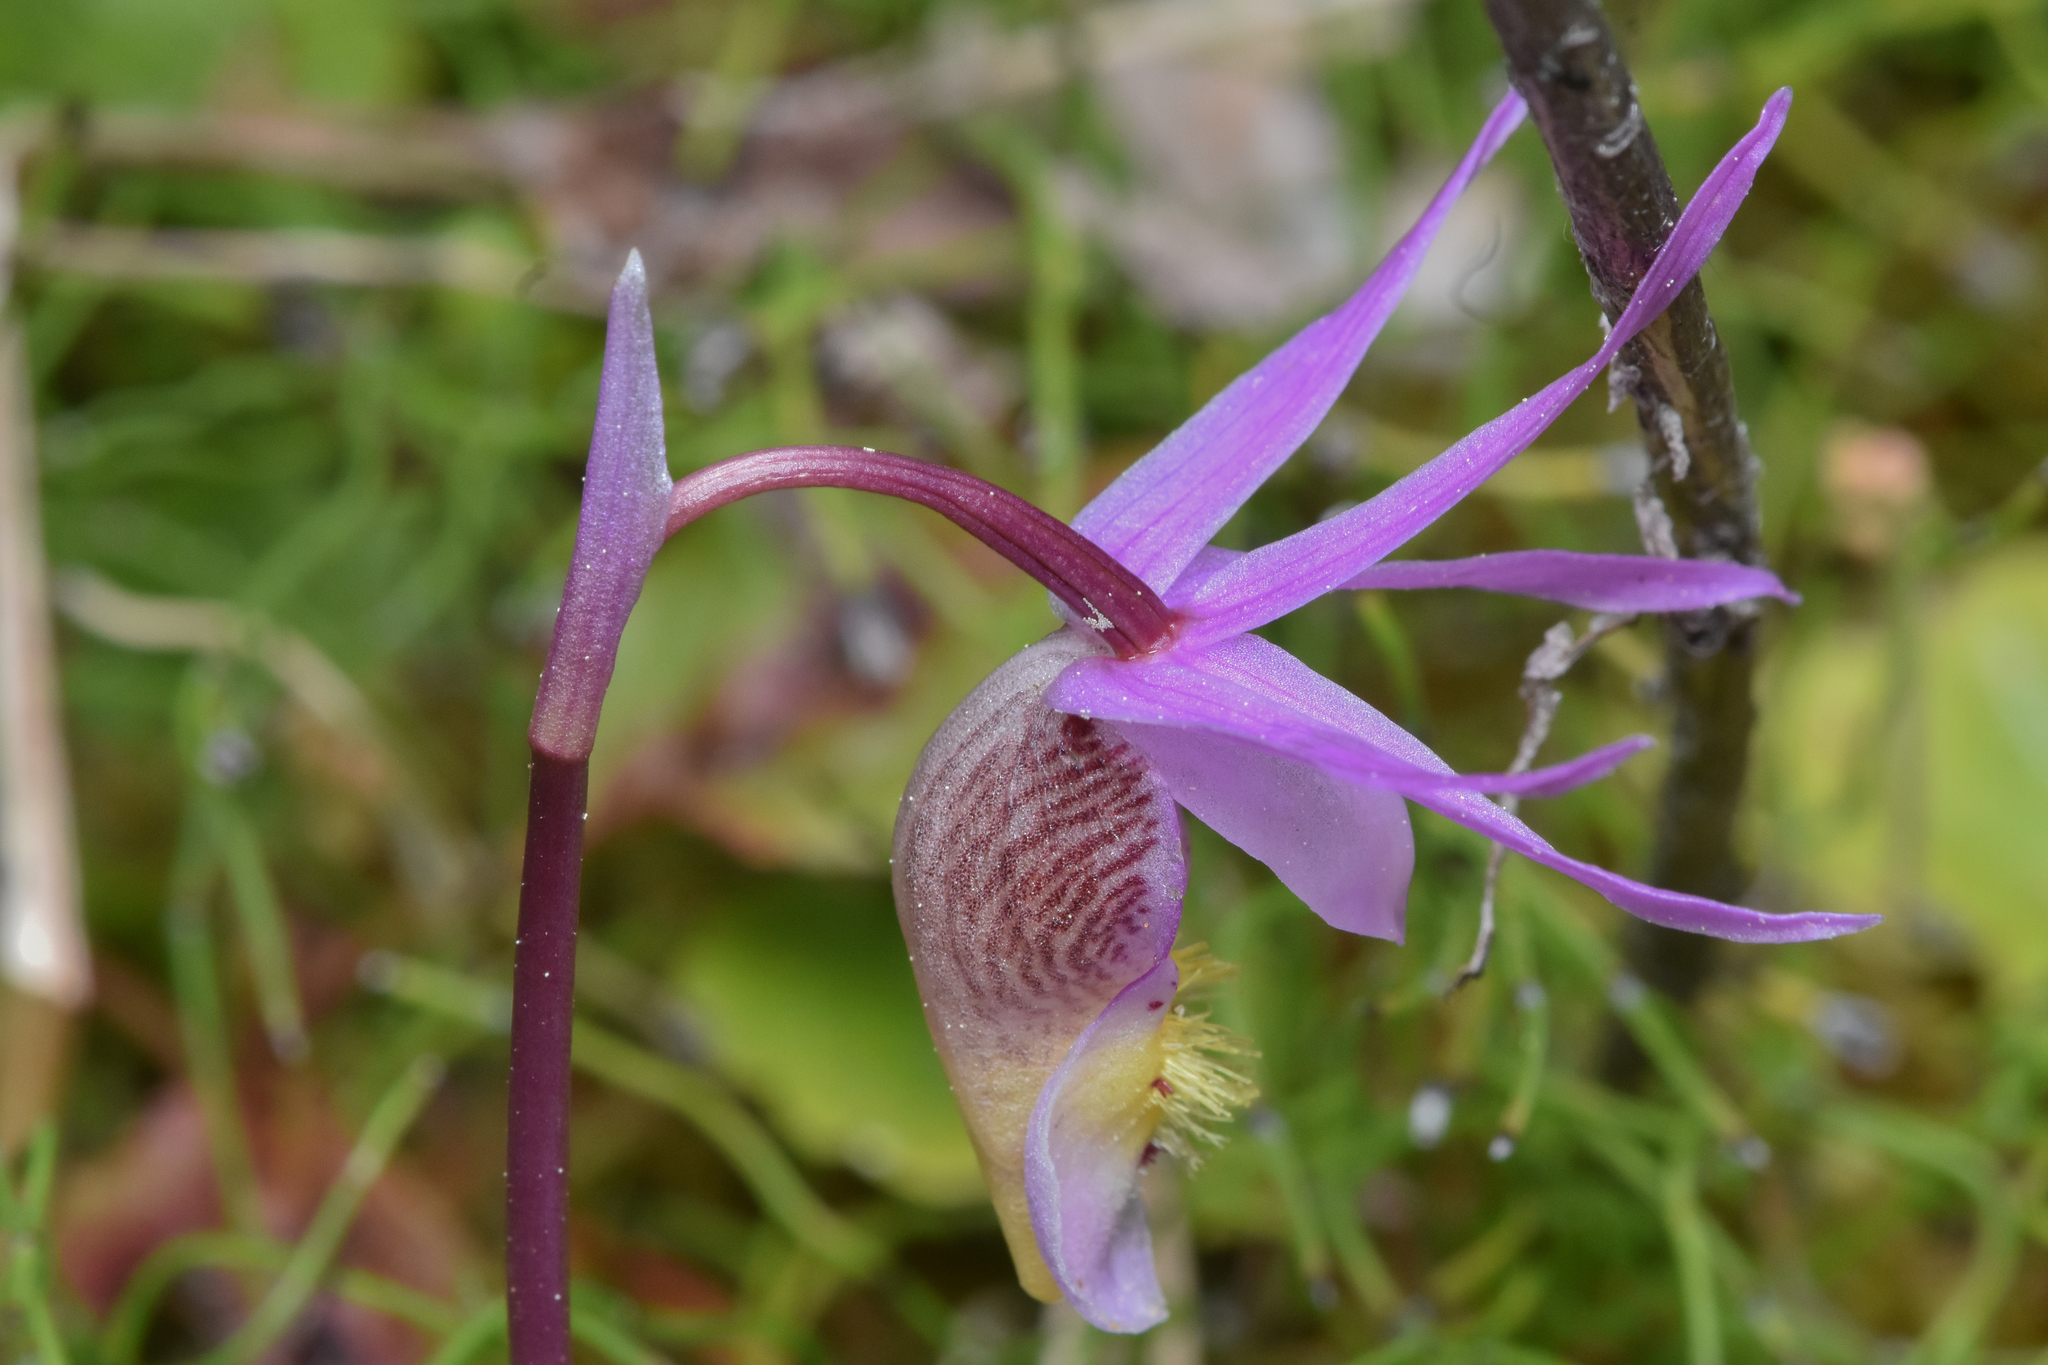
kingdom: Plantae
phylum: Tracheophyta
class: Liliopsida
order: Asparagales
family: Orchidaceae
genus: Calypso
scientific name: Calypso bulbosa
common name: Calypso
